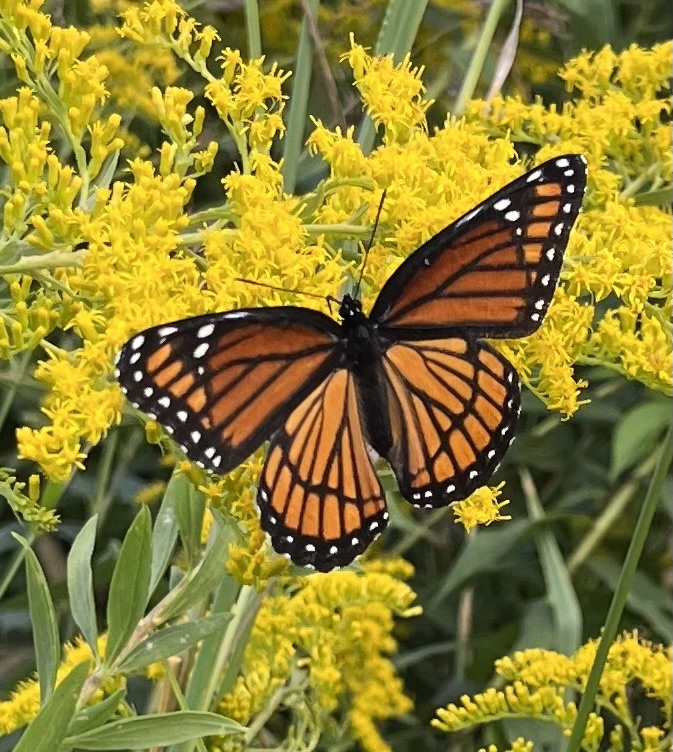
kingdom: Animalia
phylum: Arthropoda
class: Insecta
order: Lepidoptera
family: Nymphalidae
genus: Limenitis
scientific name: Limenitis archippus
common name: Viceroy
